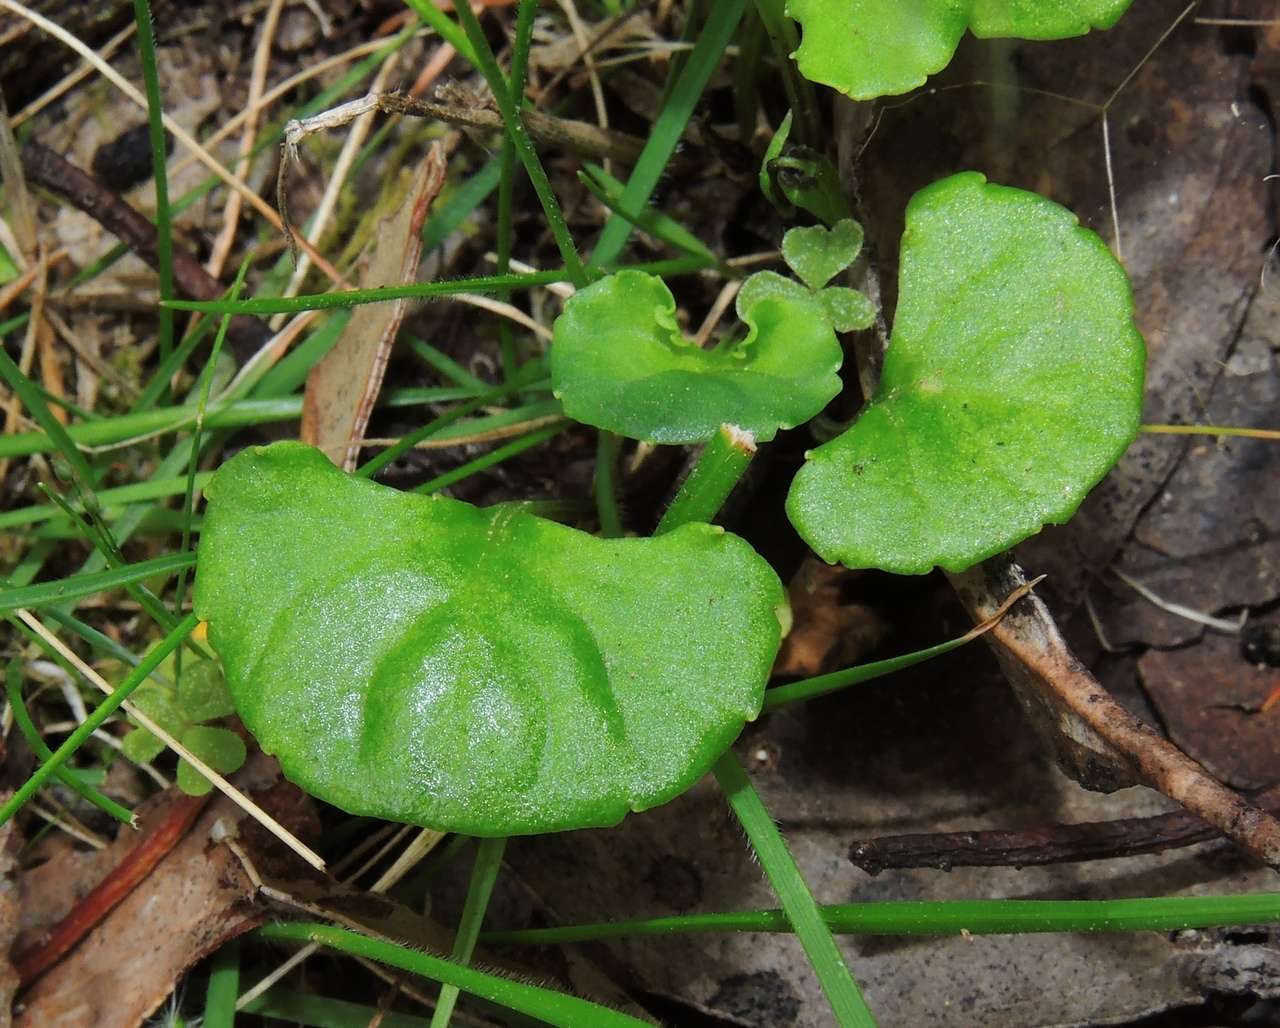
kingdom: Plantae
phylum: Tracheophyta
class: Magnoliopsida
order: Malpighiales
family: Violaceae
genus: Viola
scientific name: Viola hederacea
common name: Australian violet
